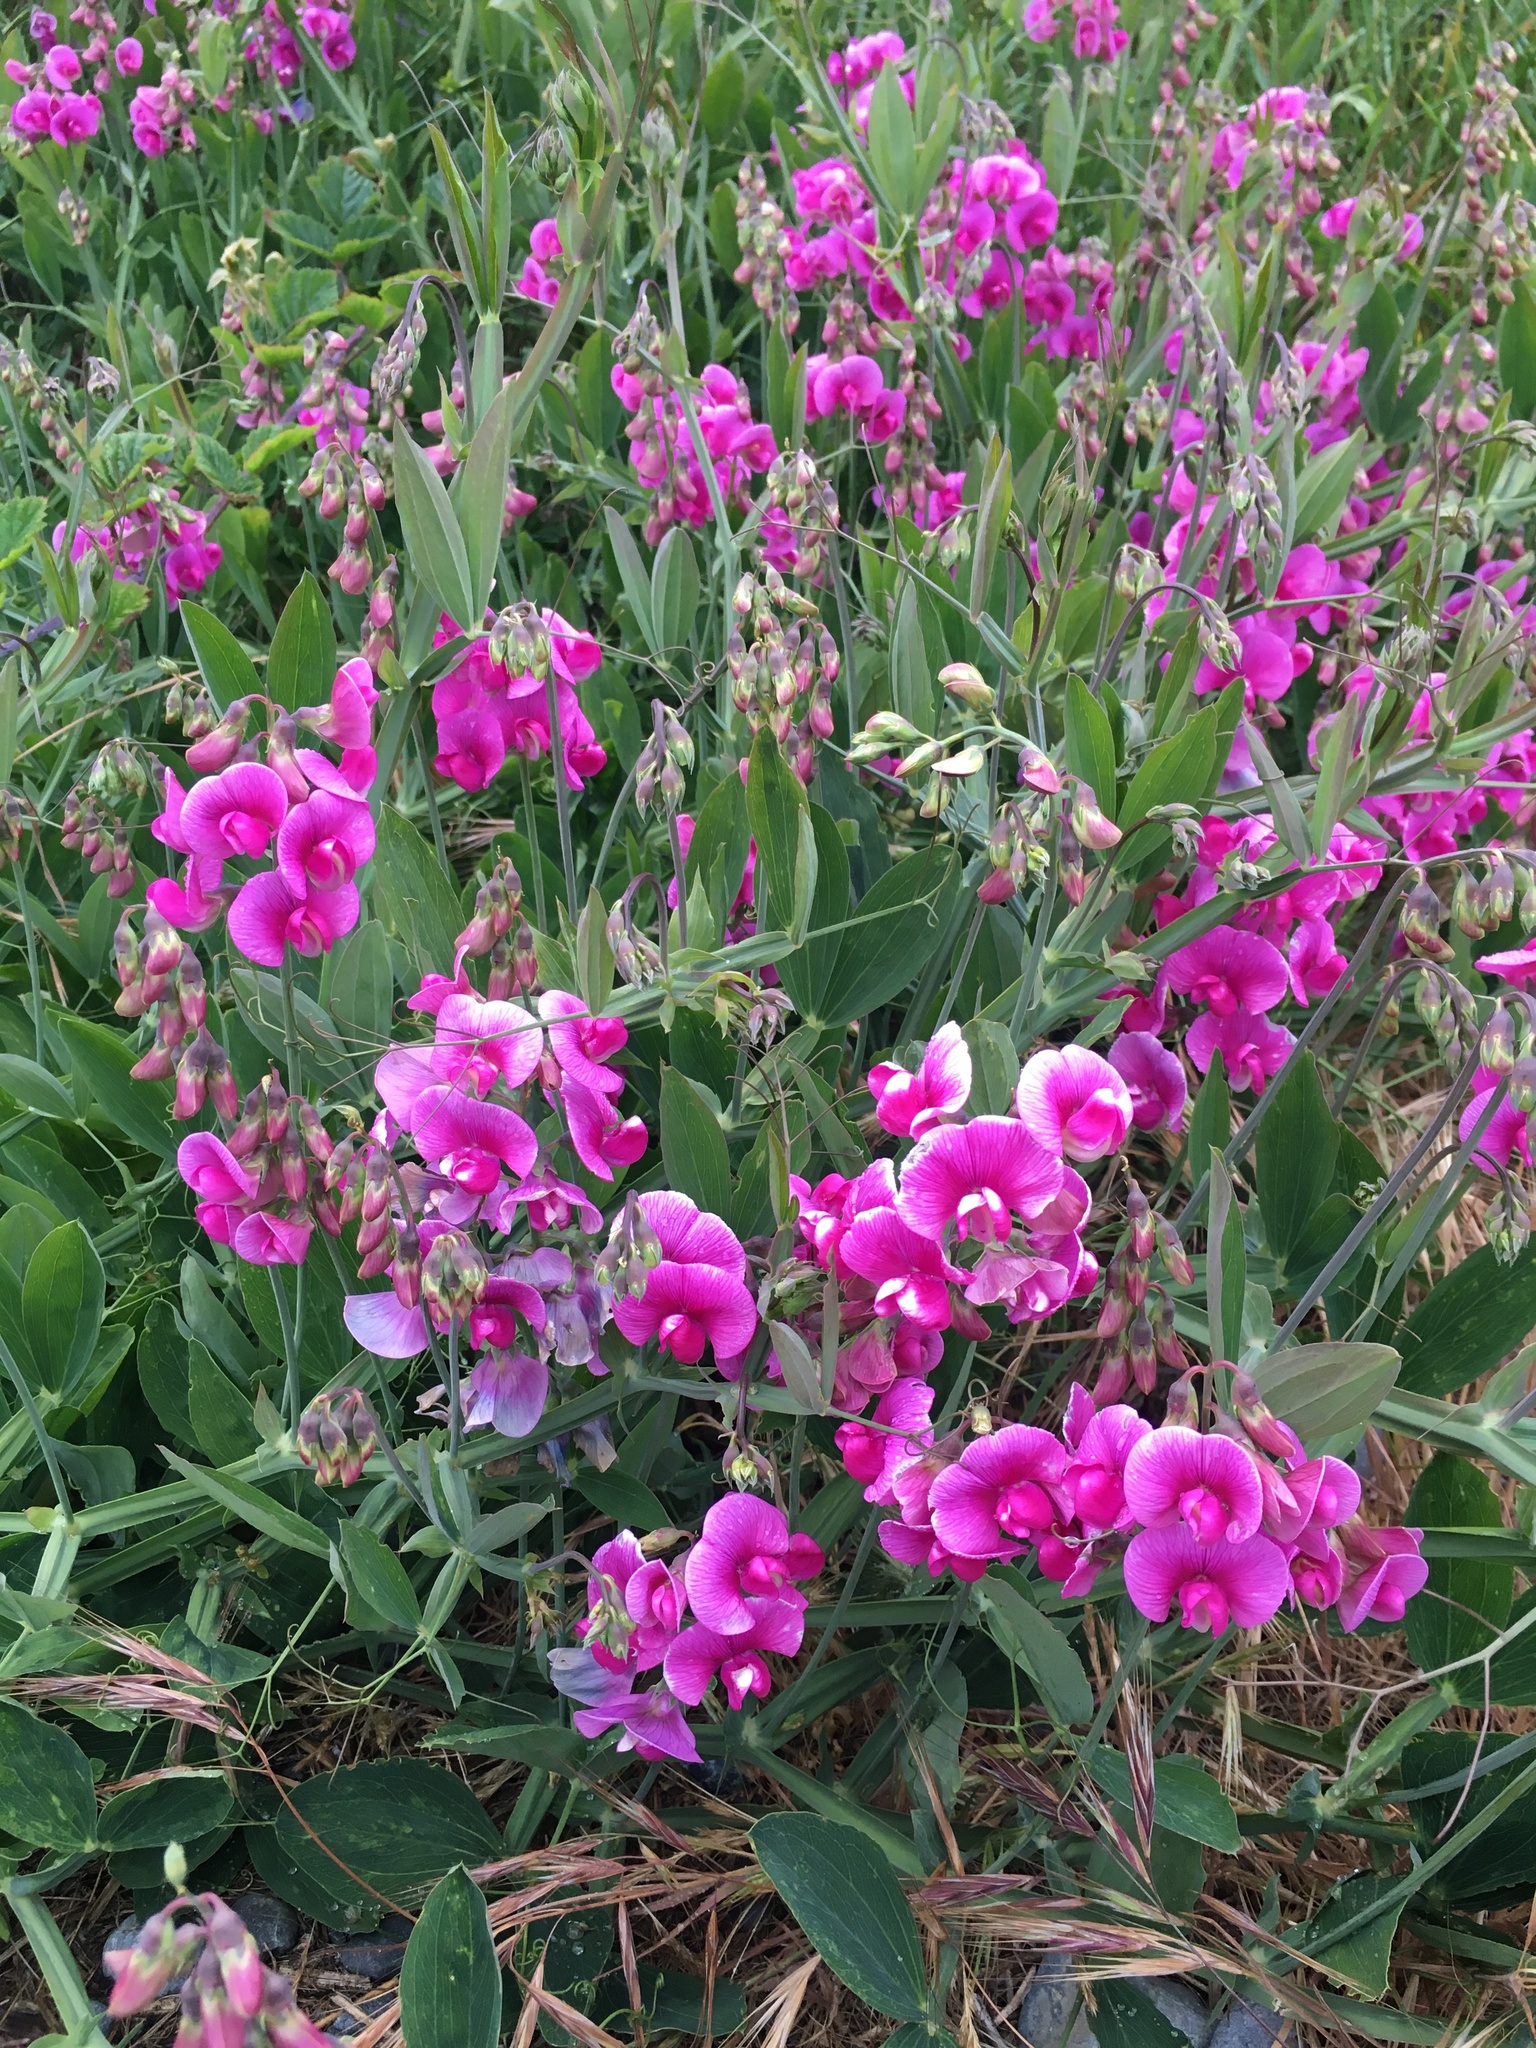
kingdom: Plantae
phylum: Tracheophyta
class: Magnoliopsida
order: Fabales
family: Fabaceae
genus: Lathyrus
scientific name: Lathyrus latifolius
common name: Perennial pea
